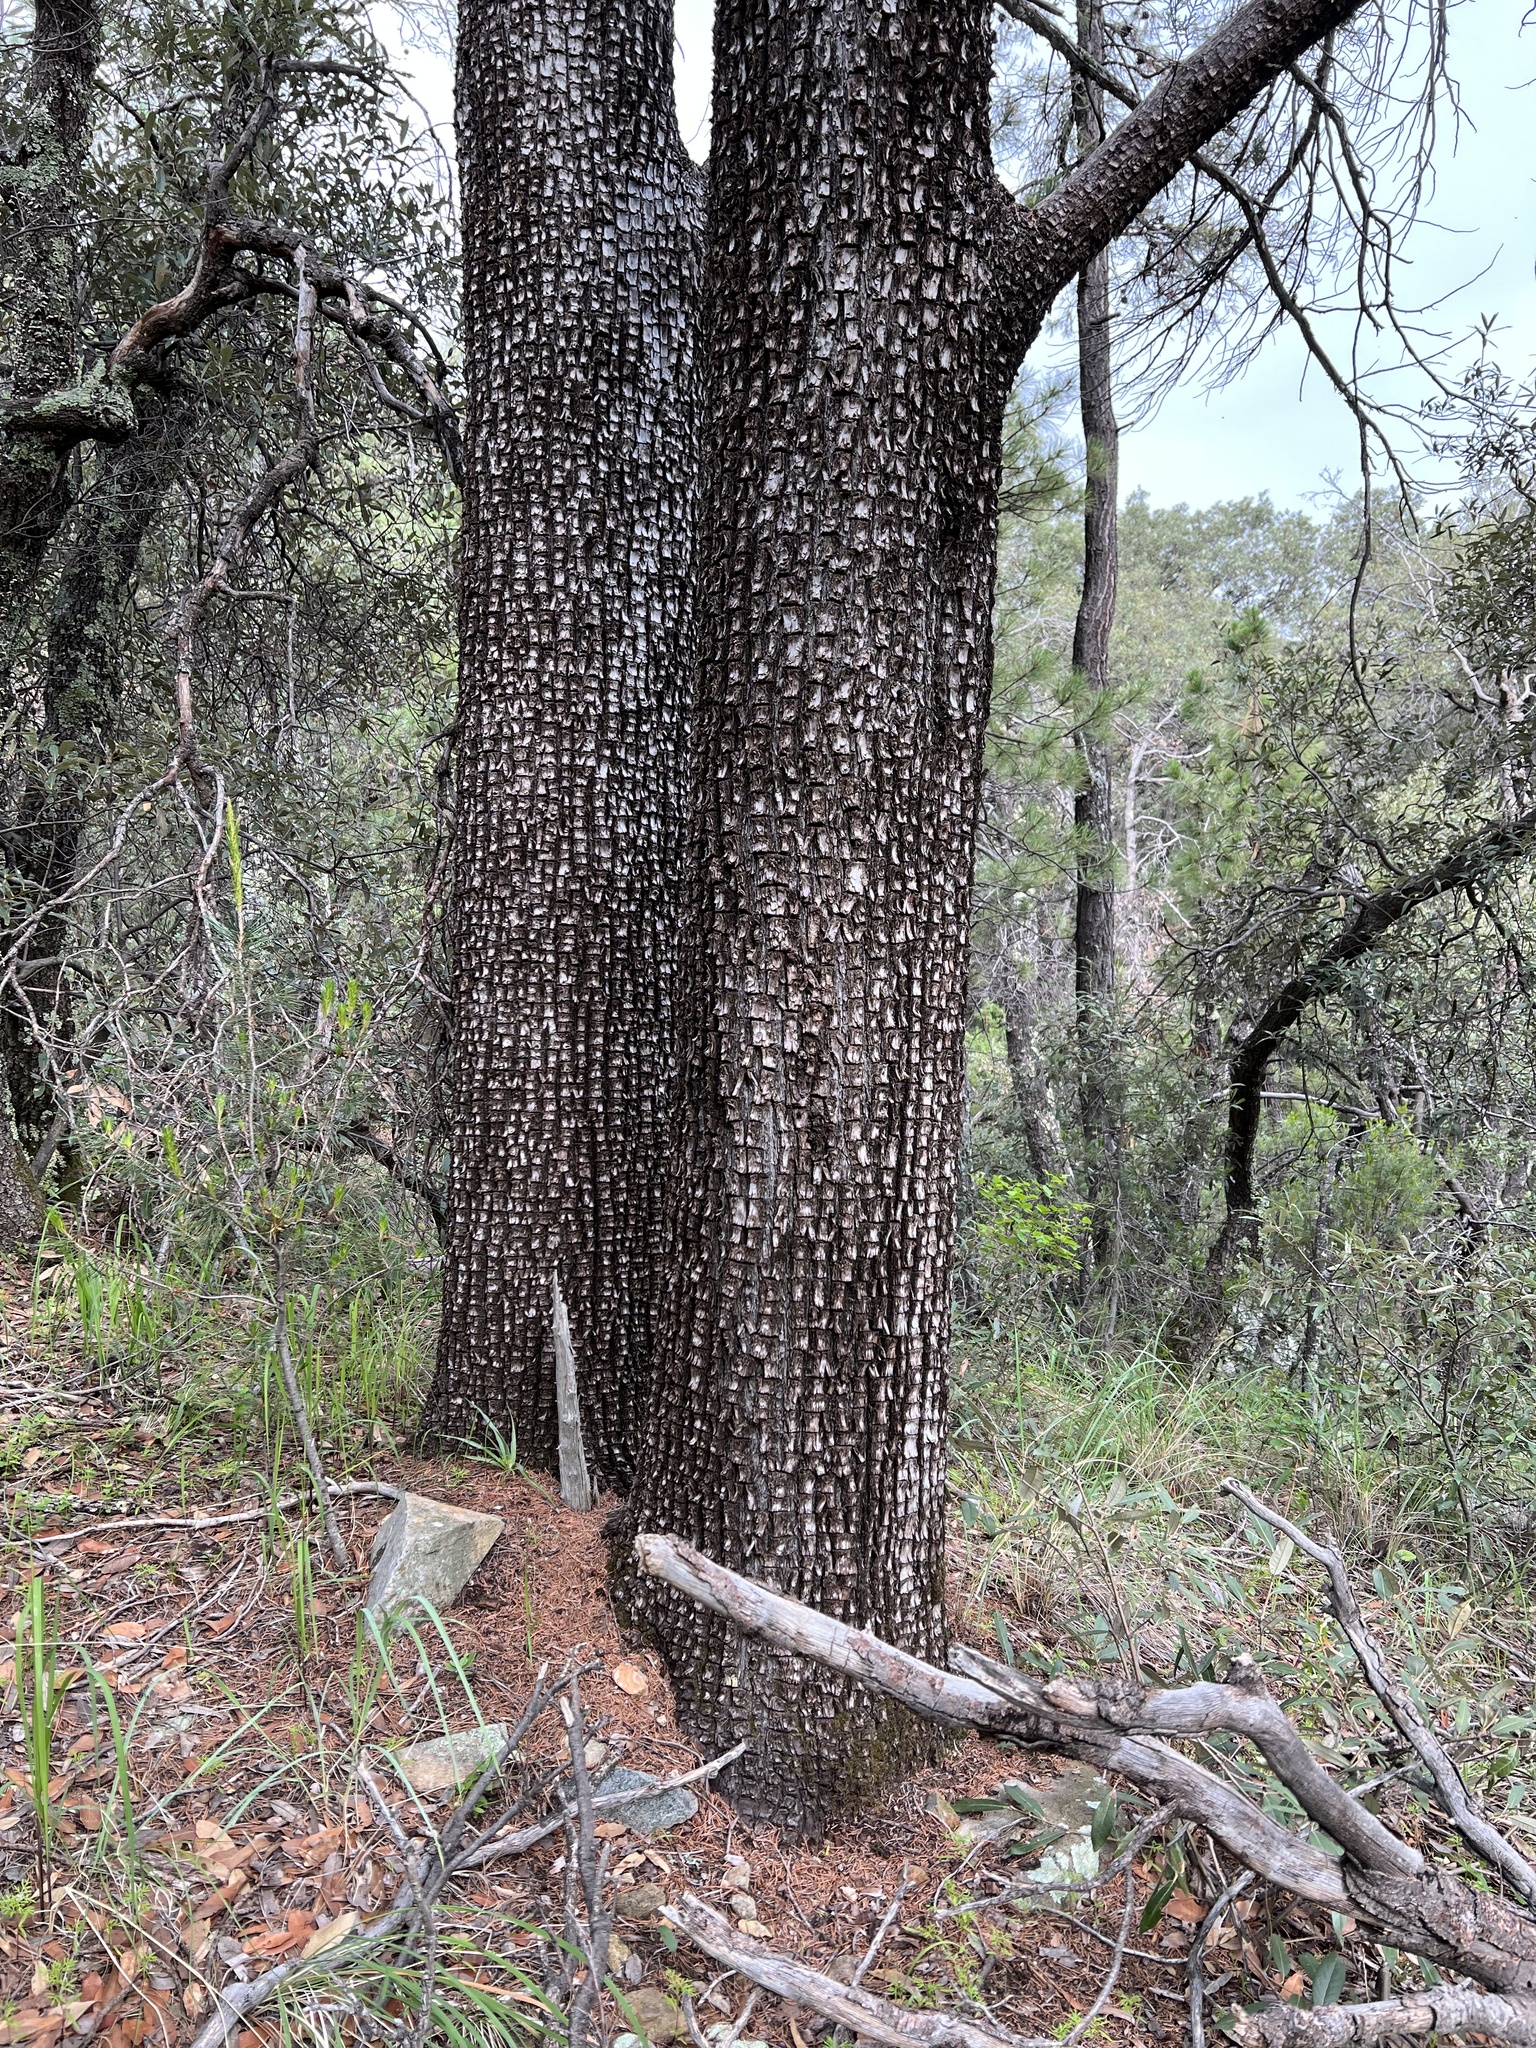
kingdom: Plantae
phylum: Tracheophyta
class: Pinopsida
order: Pinales
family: Cupressaceae
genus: Juniperus
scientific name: Juniperus deppeana
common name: Alligator juniper
